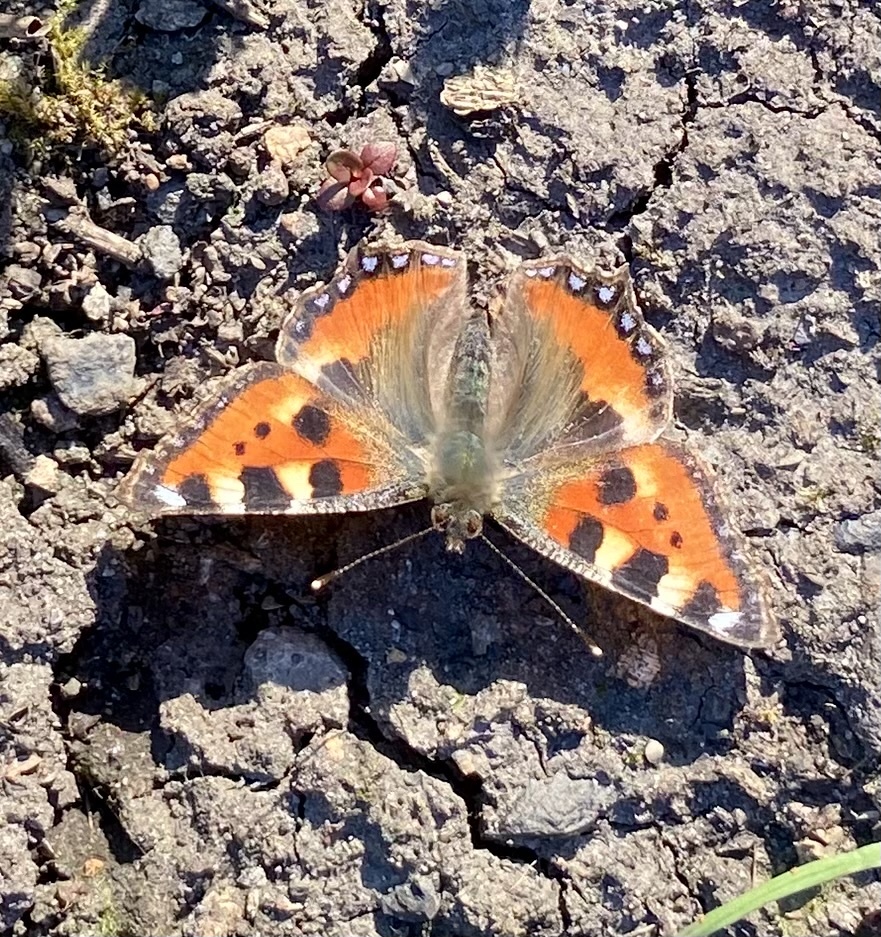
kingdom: Animalia
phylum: Arthropoda
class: Insecta
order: Lepidoptera
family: Nymphalidae
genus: Aglais
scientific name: Aglais urticae
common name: Small tortoiseshell
